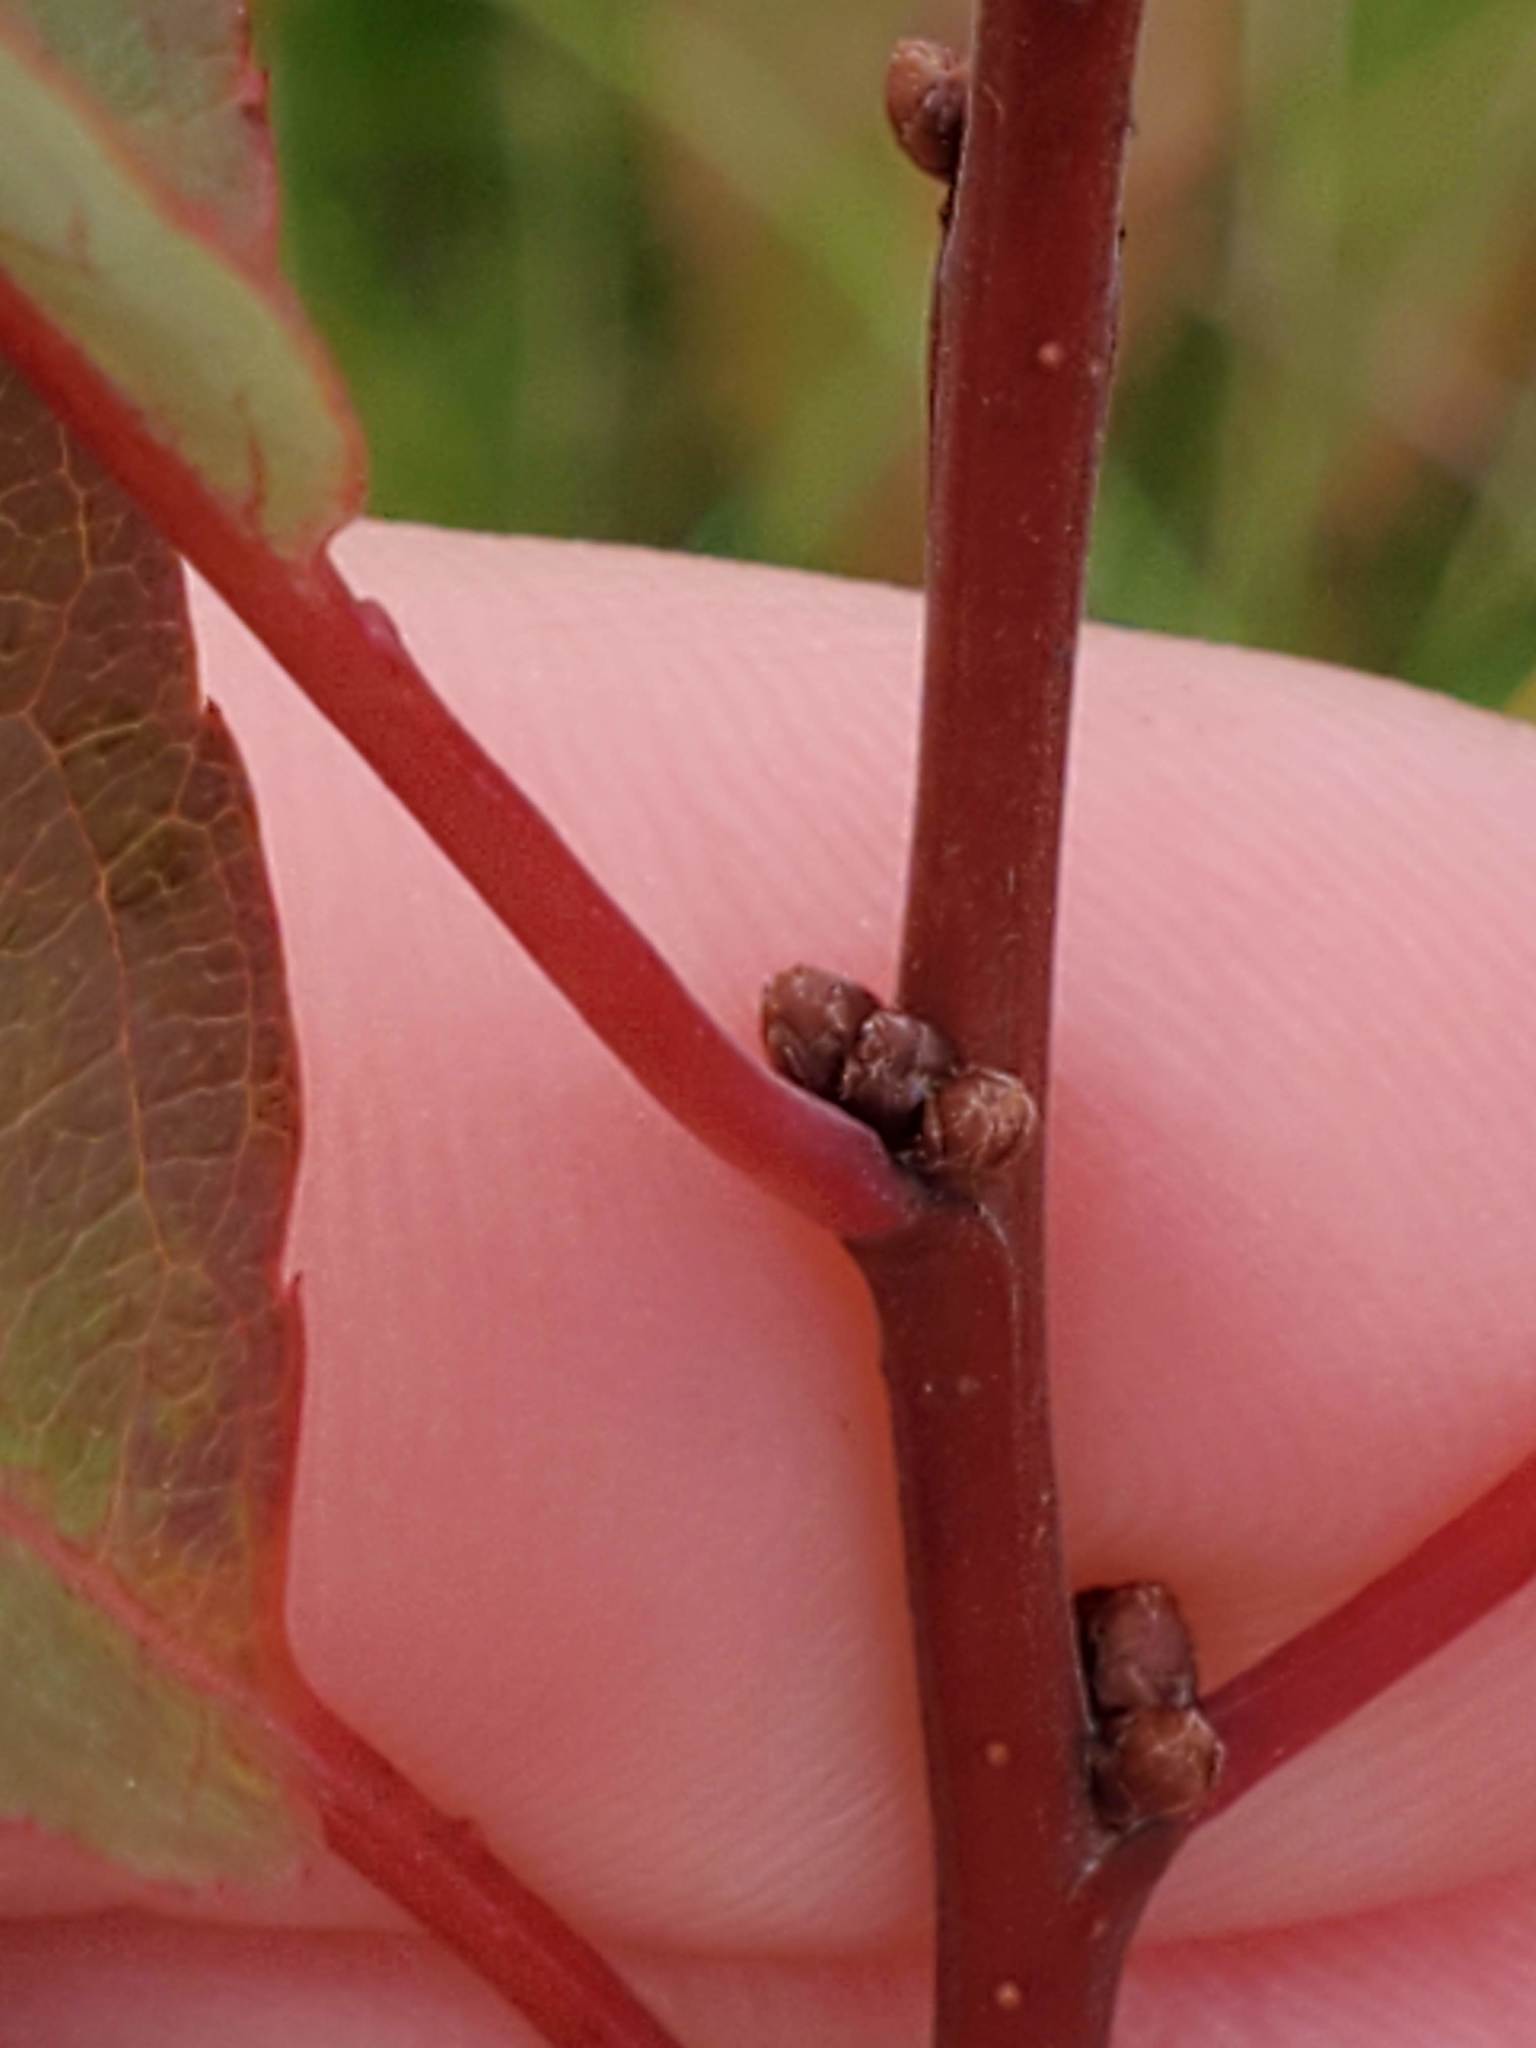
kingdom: Plantae
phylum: Tracheophyta
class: Magnoliopsida
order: Rosales
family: Rosaceae
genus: Prunus
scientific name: Prunus pumila
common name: Dwarf cherry
